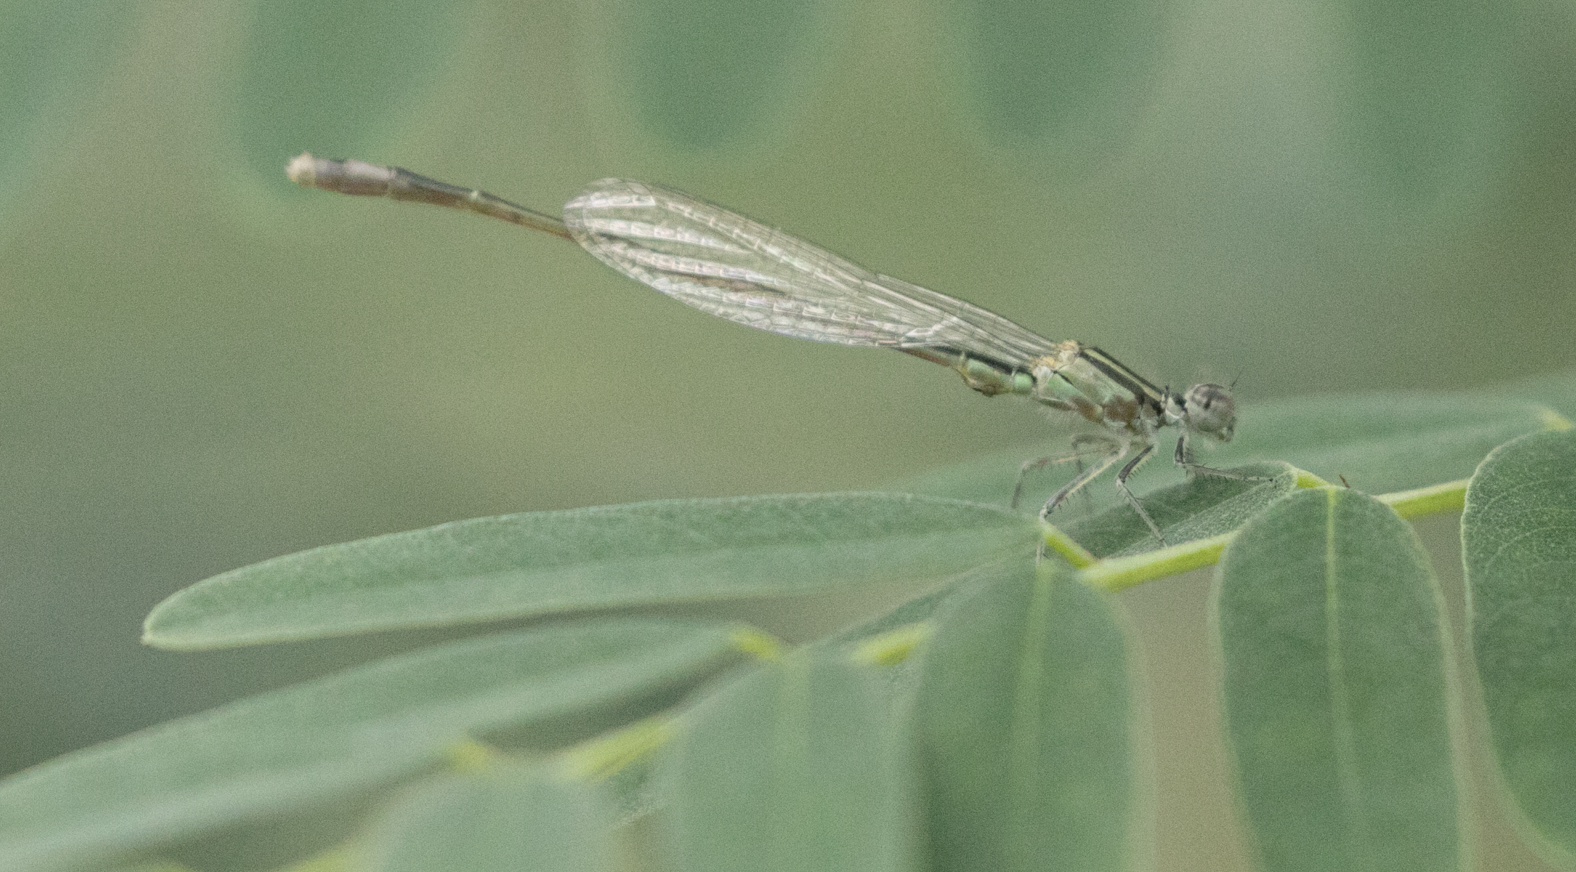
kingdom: Animalia
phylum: Arthropoda
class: Insecta
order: Odonata
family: Coenagrionidae
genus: Ischnura
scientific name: Ischnura elegans
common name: Blue-tailed damselfly
